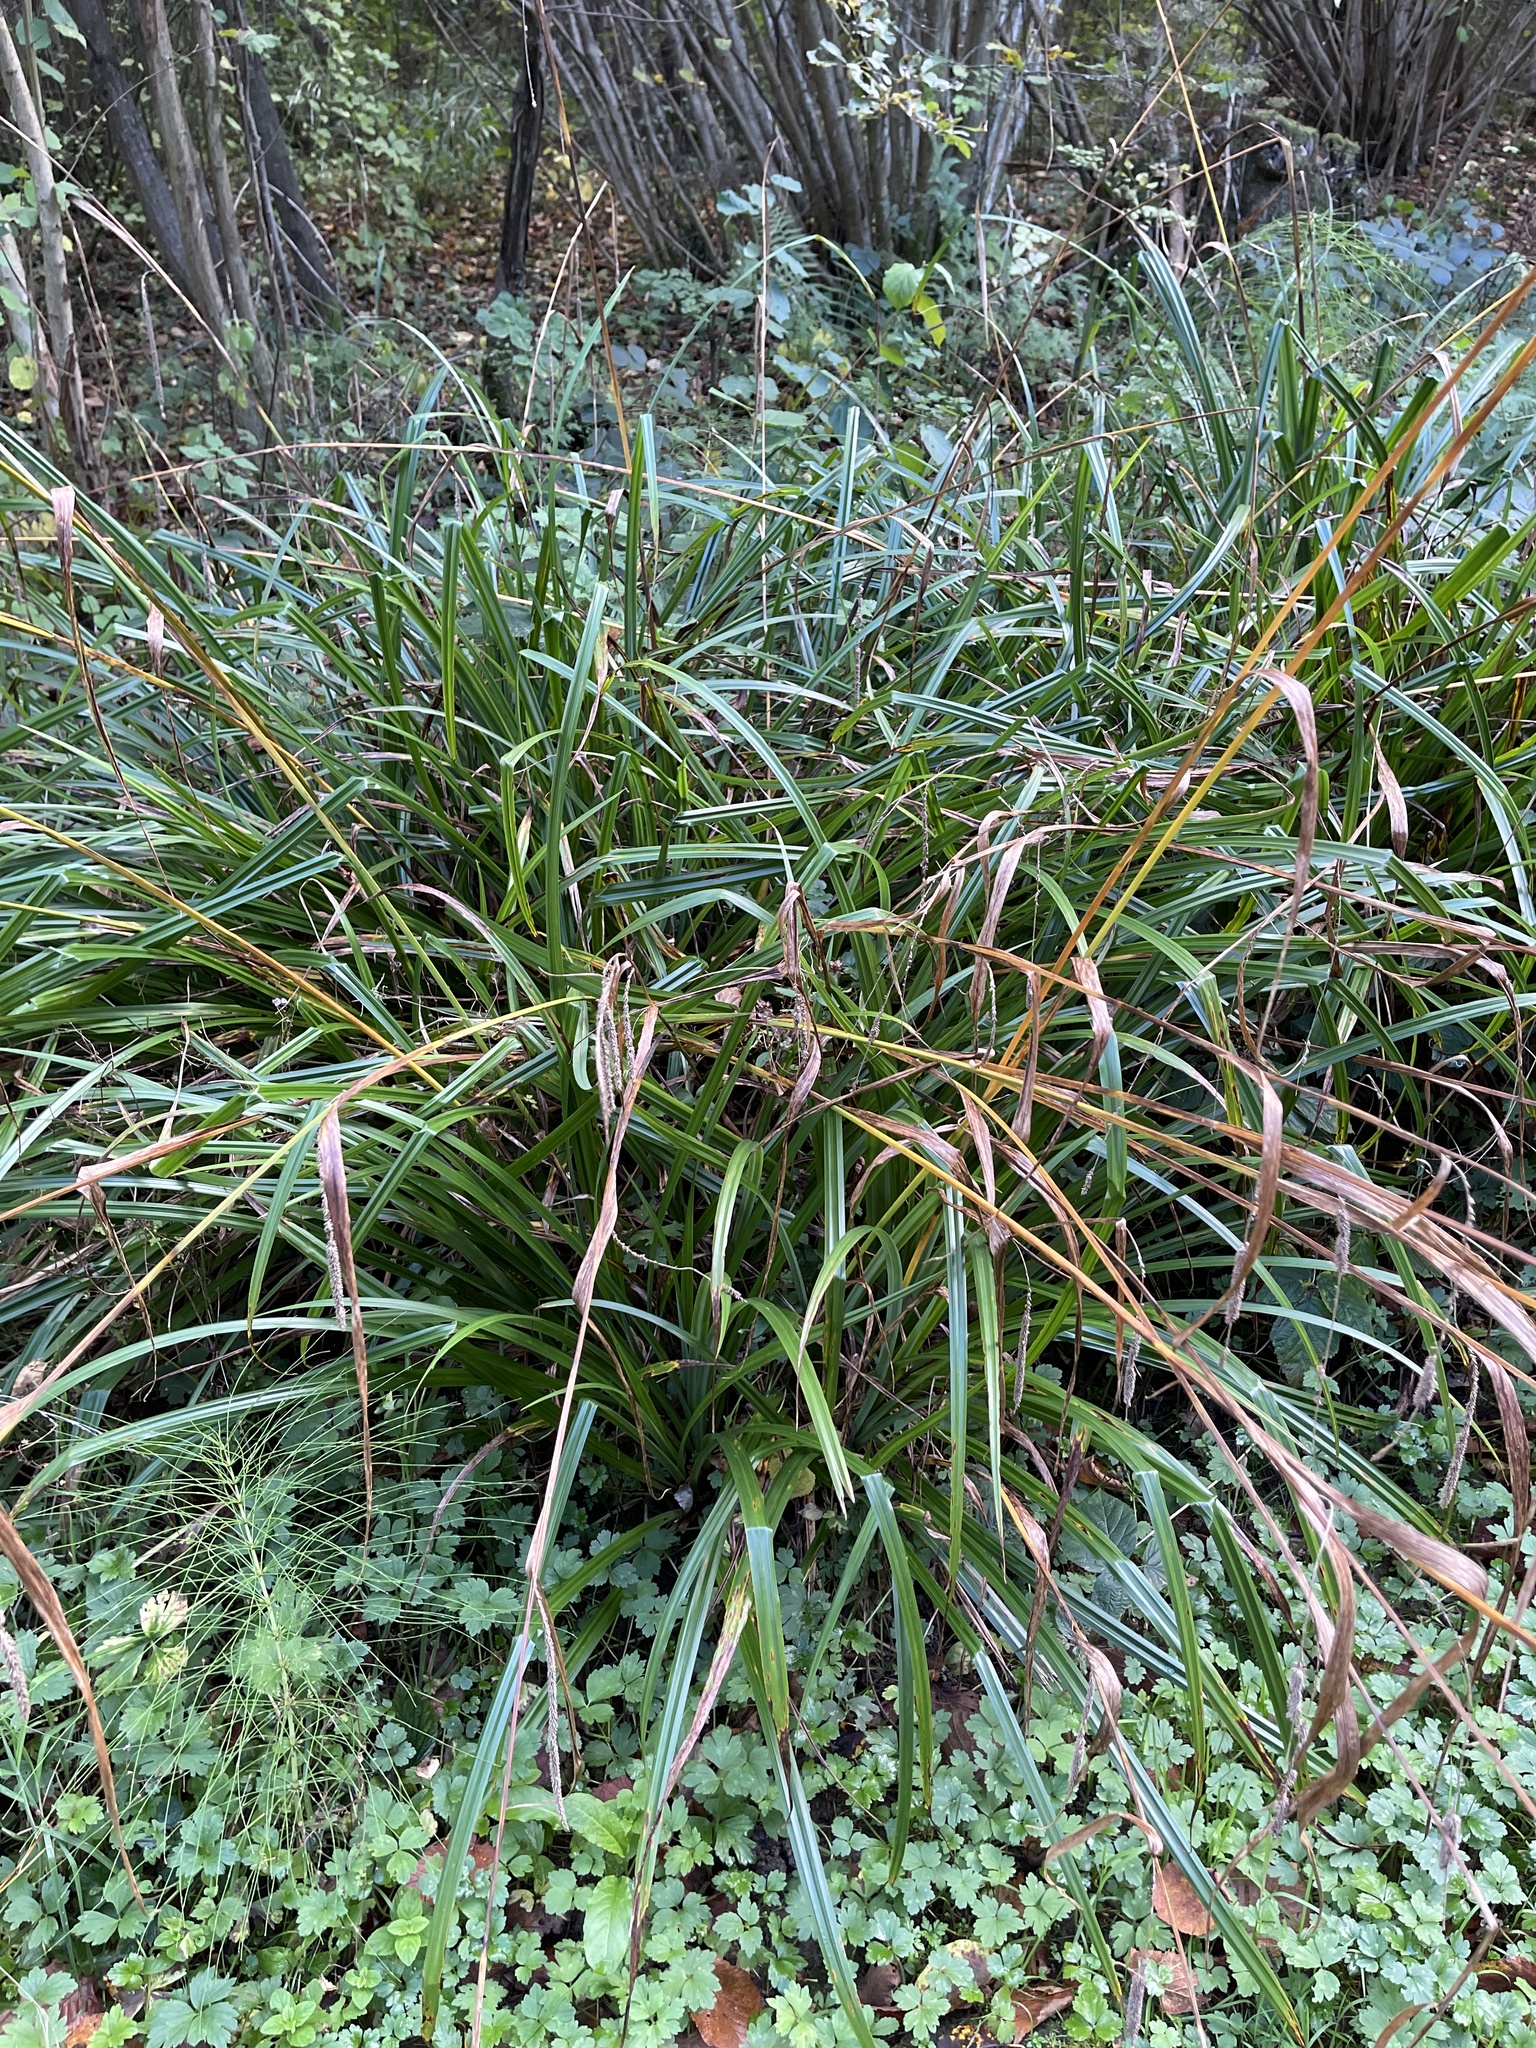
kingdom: Plantae
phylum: Tracheophyta
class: Liliopsida
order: Poales
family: Cyperaceae
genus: Carex
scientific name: Carex pendula
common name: Pendulous sedge
